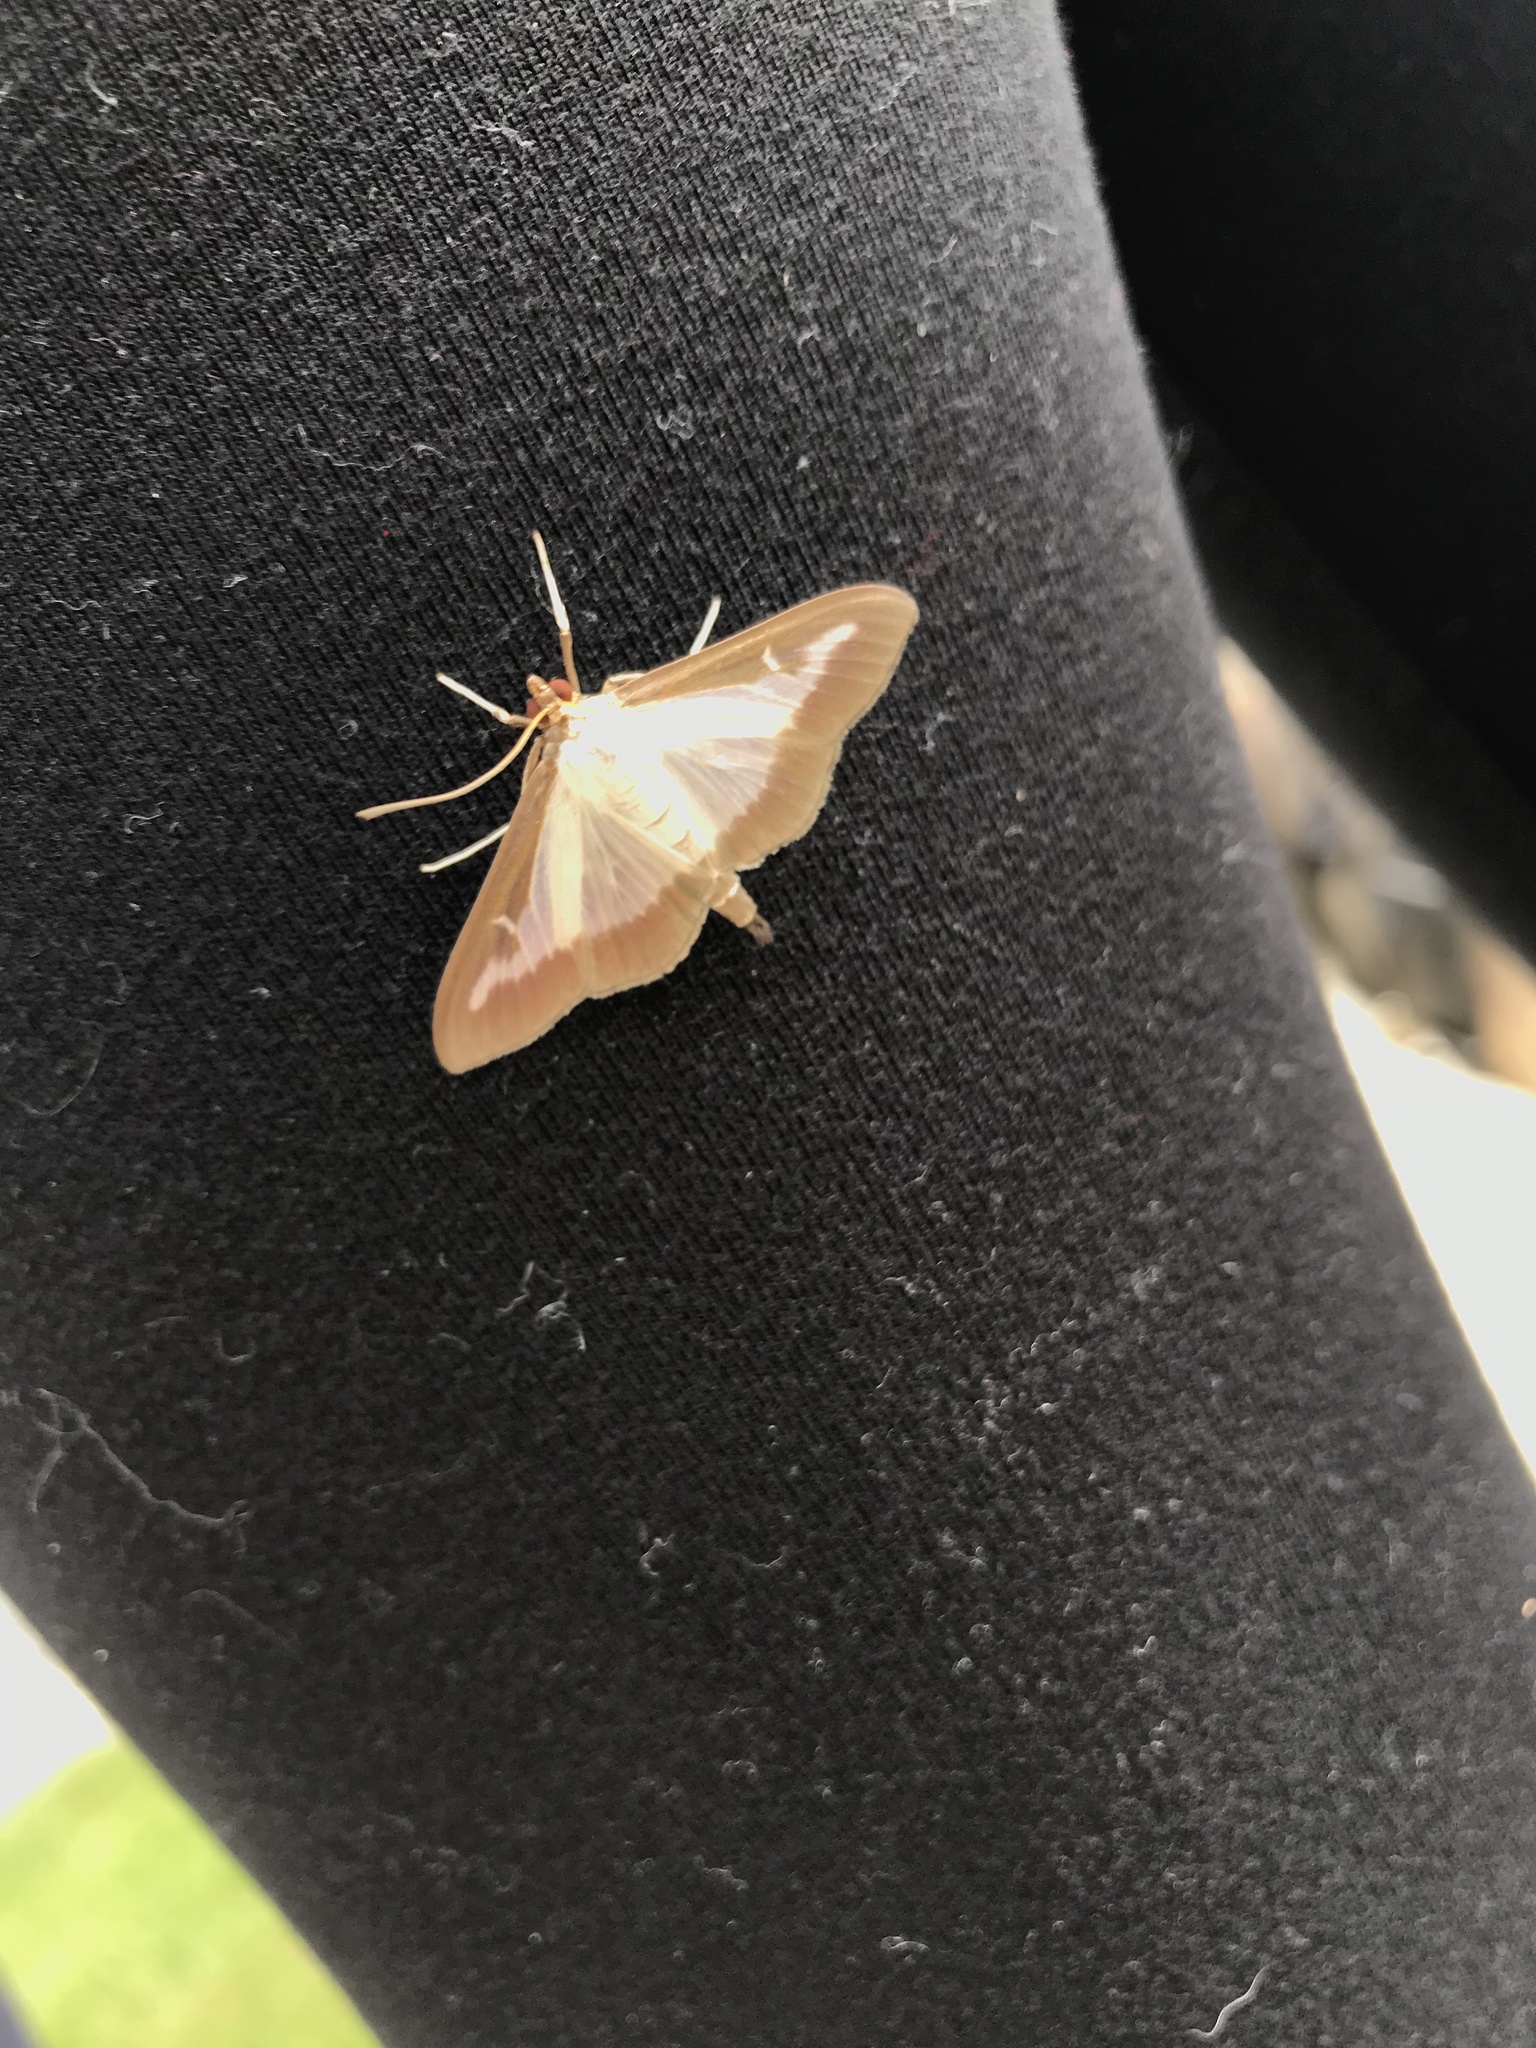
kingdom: Animalia
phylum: Arthropoda
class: Insecta
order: Lepidoptera
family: Crambidae
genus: Cydalima
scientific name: Cydalima perspectalis
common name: Box tree moth
